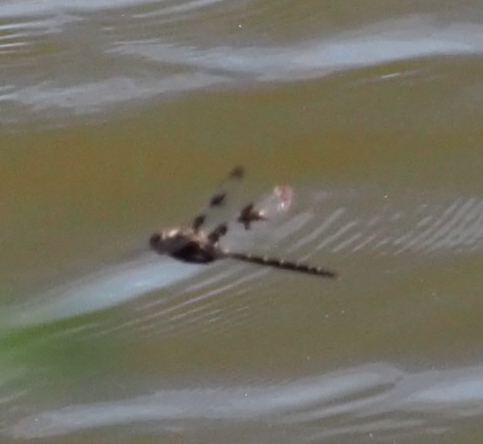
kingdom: Animalia
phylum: Arthropoda
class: Insecta
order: Odonata
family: Corduliidae
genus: Epitheca
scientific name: Epitheca princeps
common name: Prince baskettail
